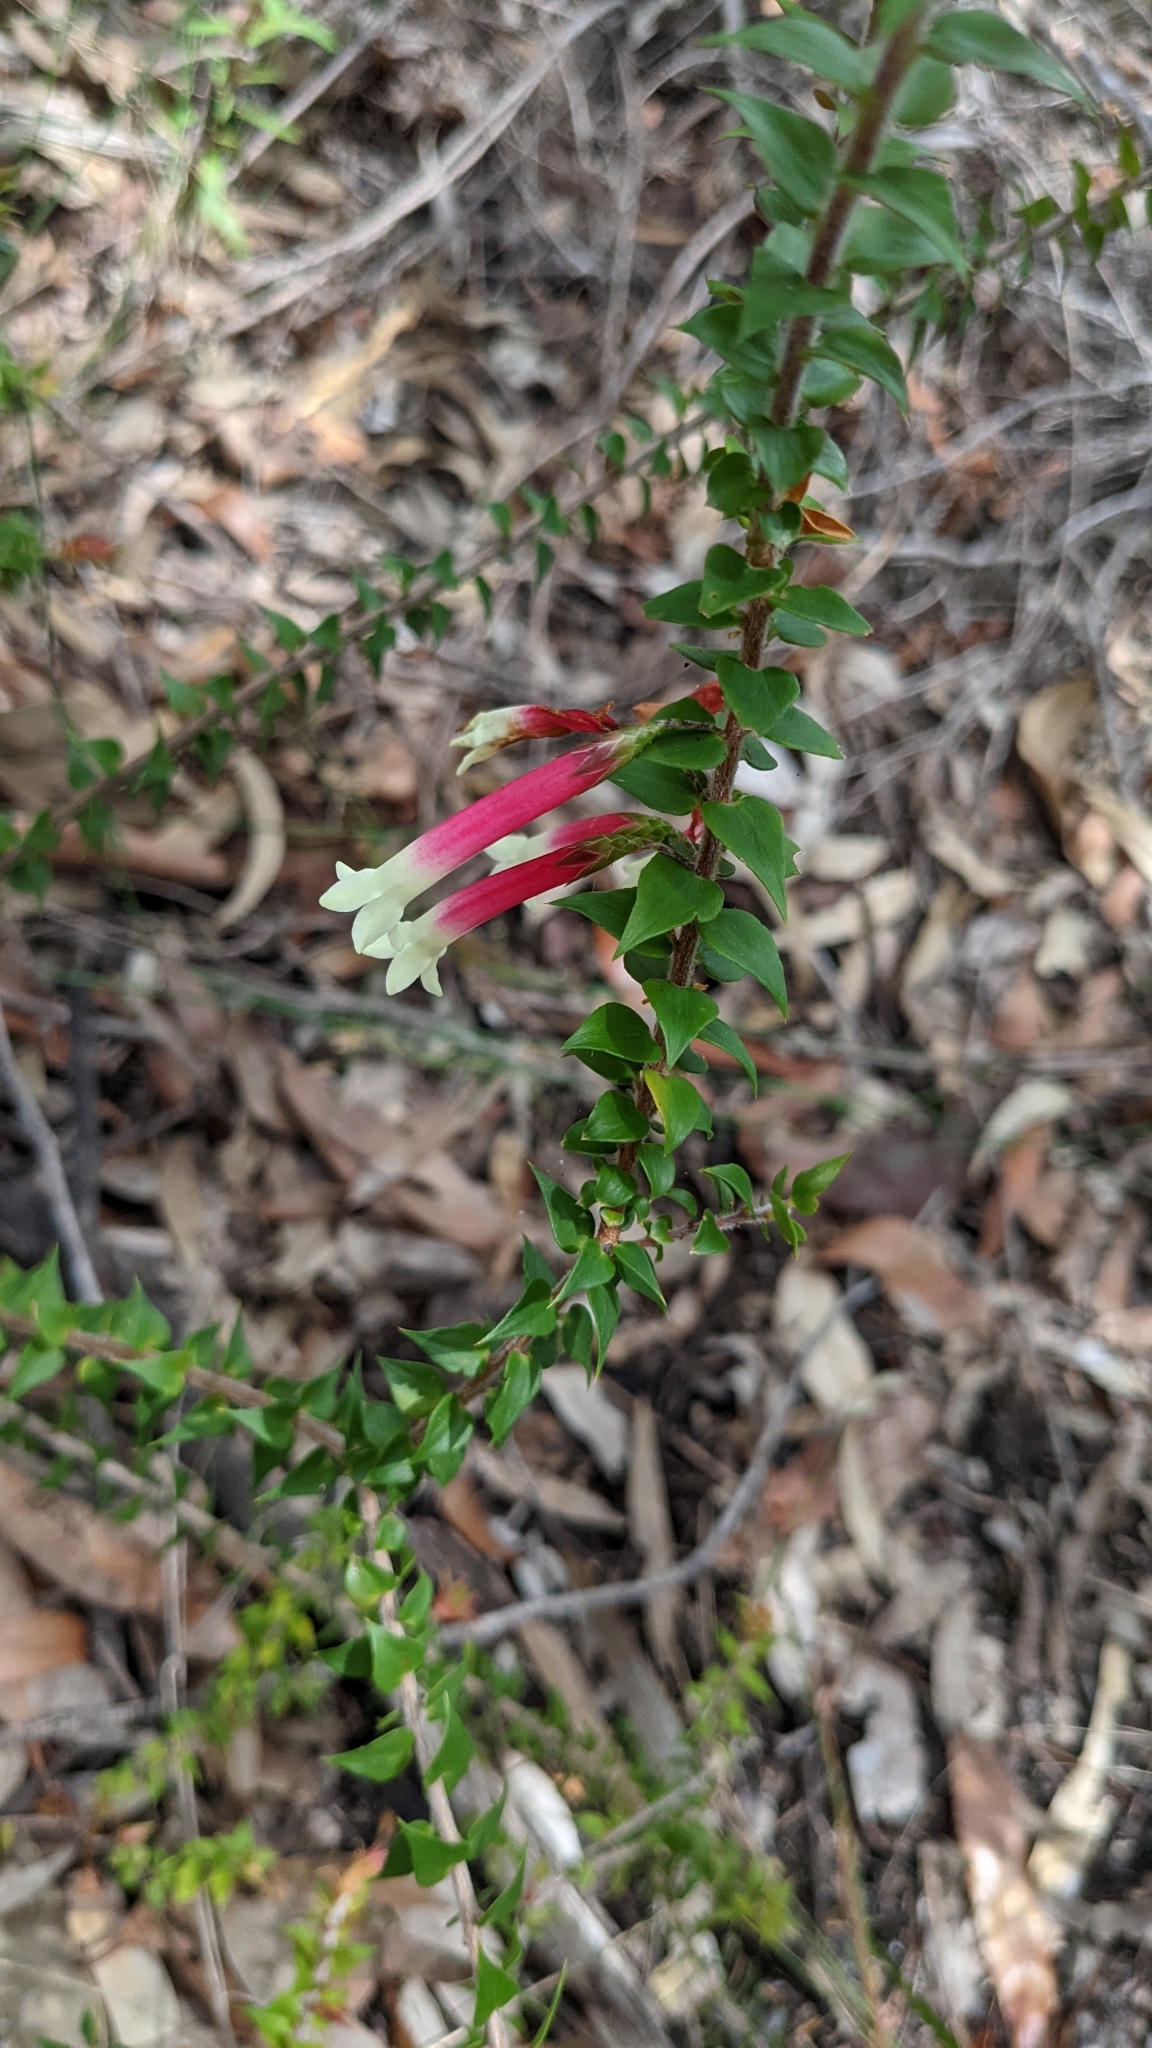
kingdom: Plantae
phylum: Tracheophyta
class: Magnoliopsida
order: Ericales
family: Ericaceae
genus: Epacris
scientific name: Epacris longiflora
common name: Fuchsia-heath
